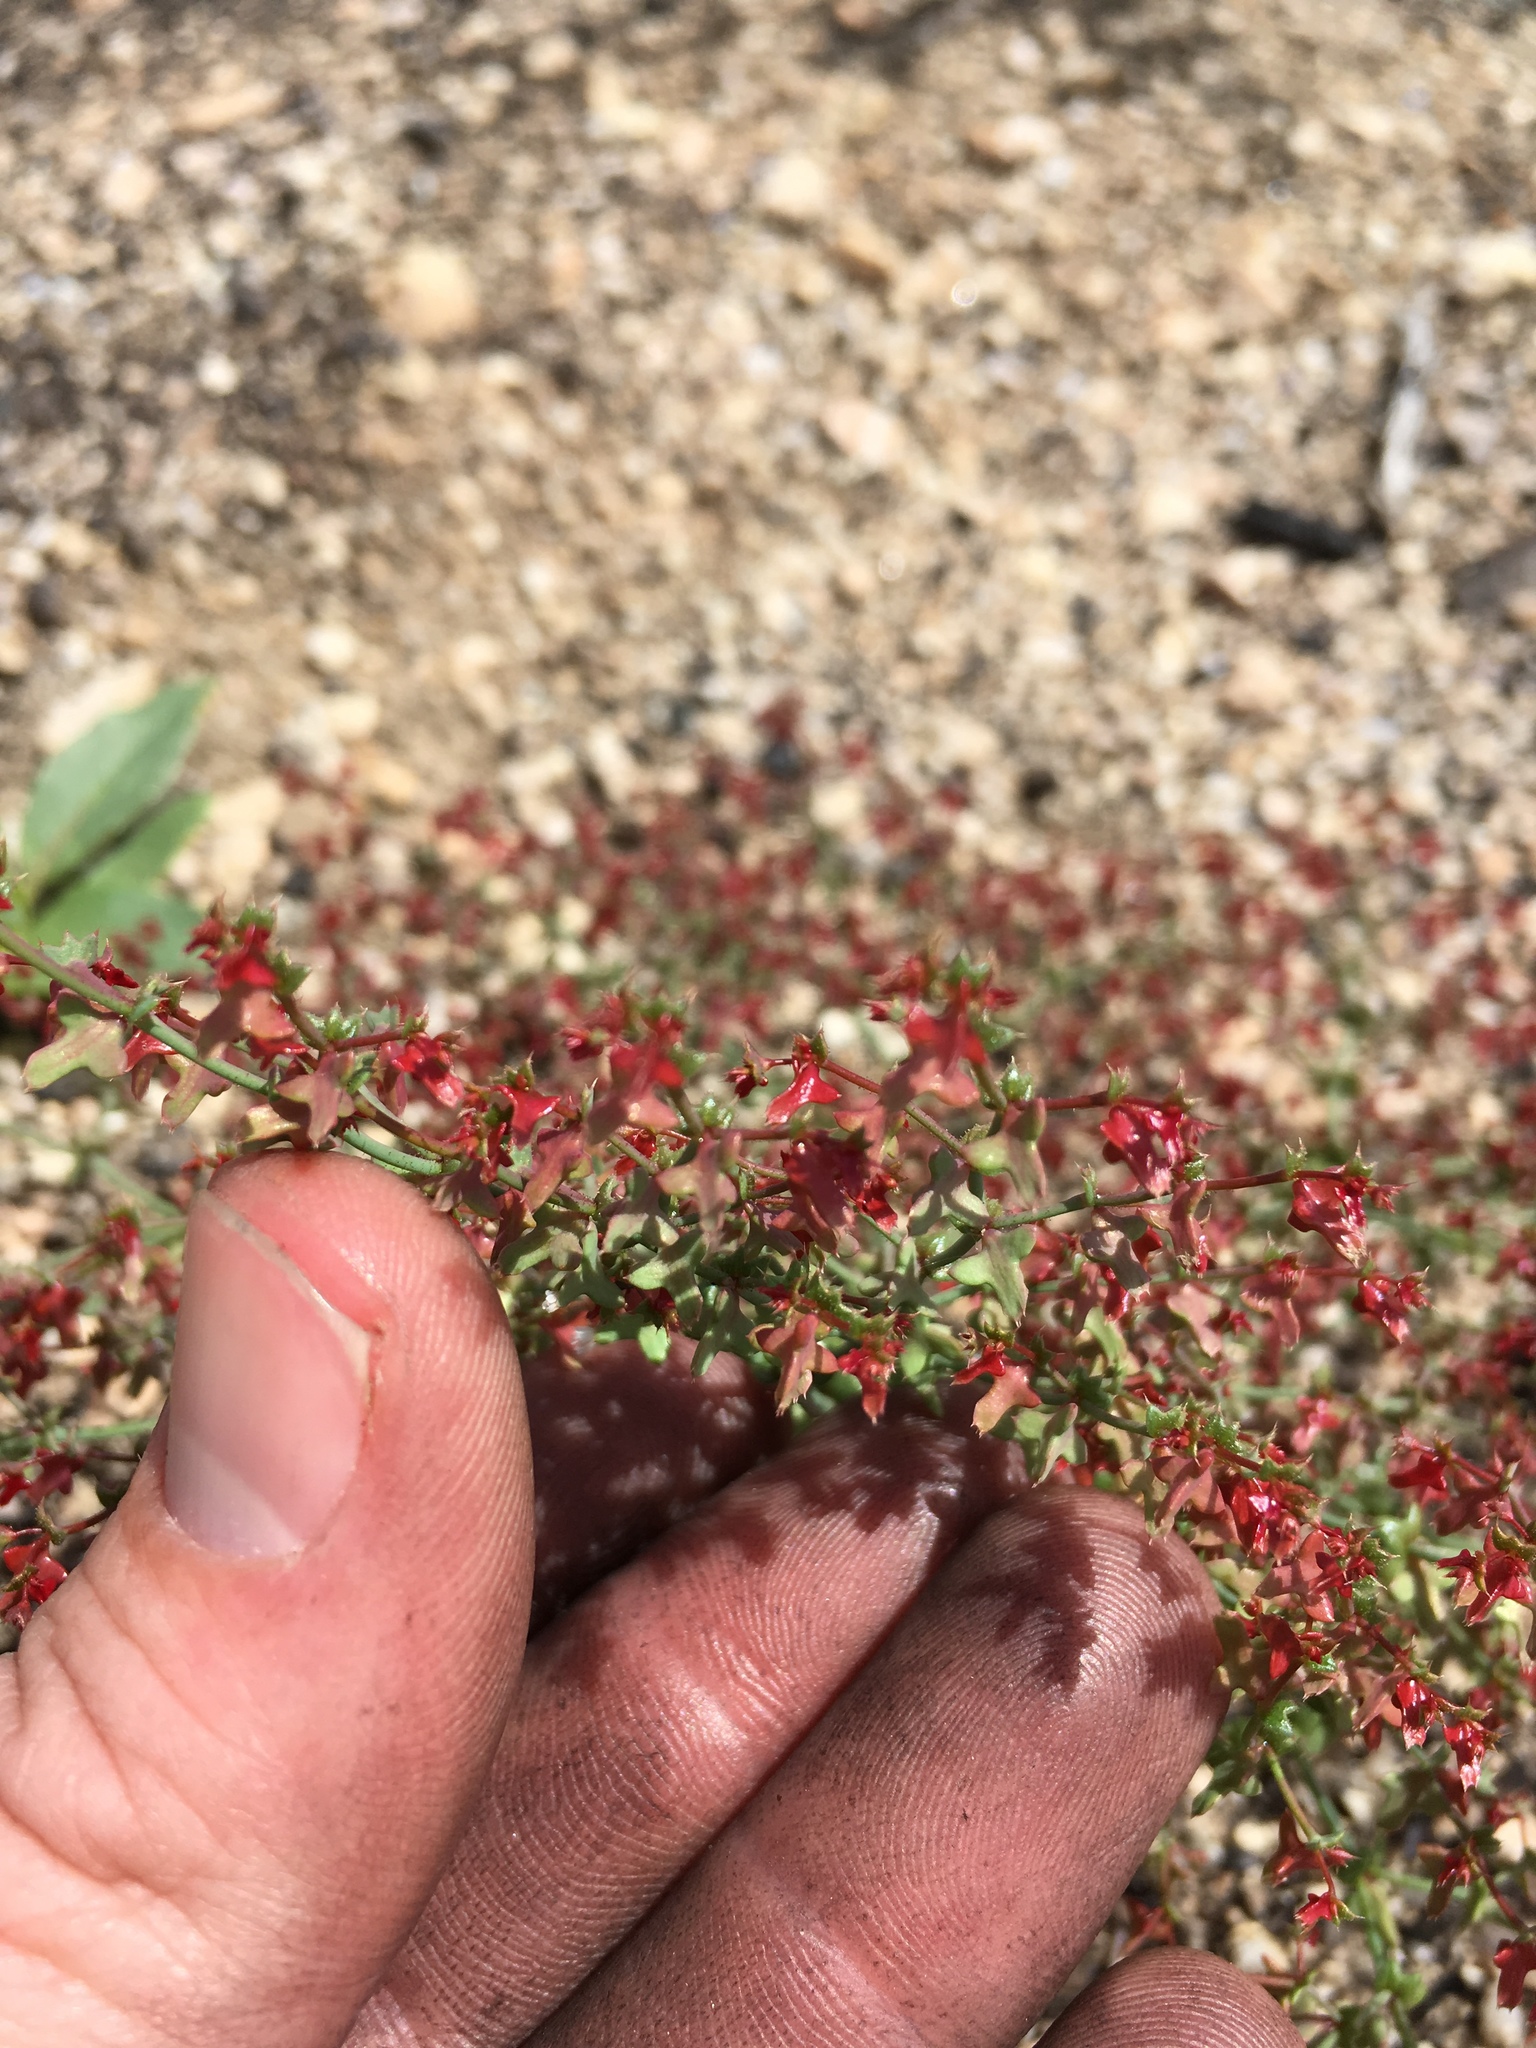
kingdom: Plantae
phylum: Tracheophyta
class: Magnoliopsida
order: Caryophyllales
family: Polygonaceae
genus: Centrostegia
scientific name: Centrostegia thurberi
